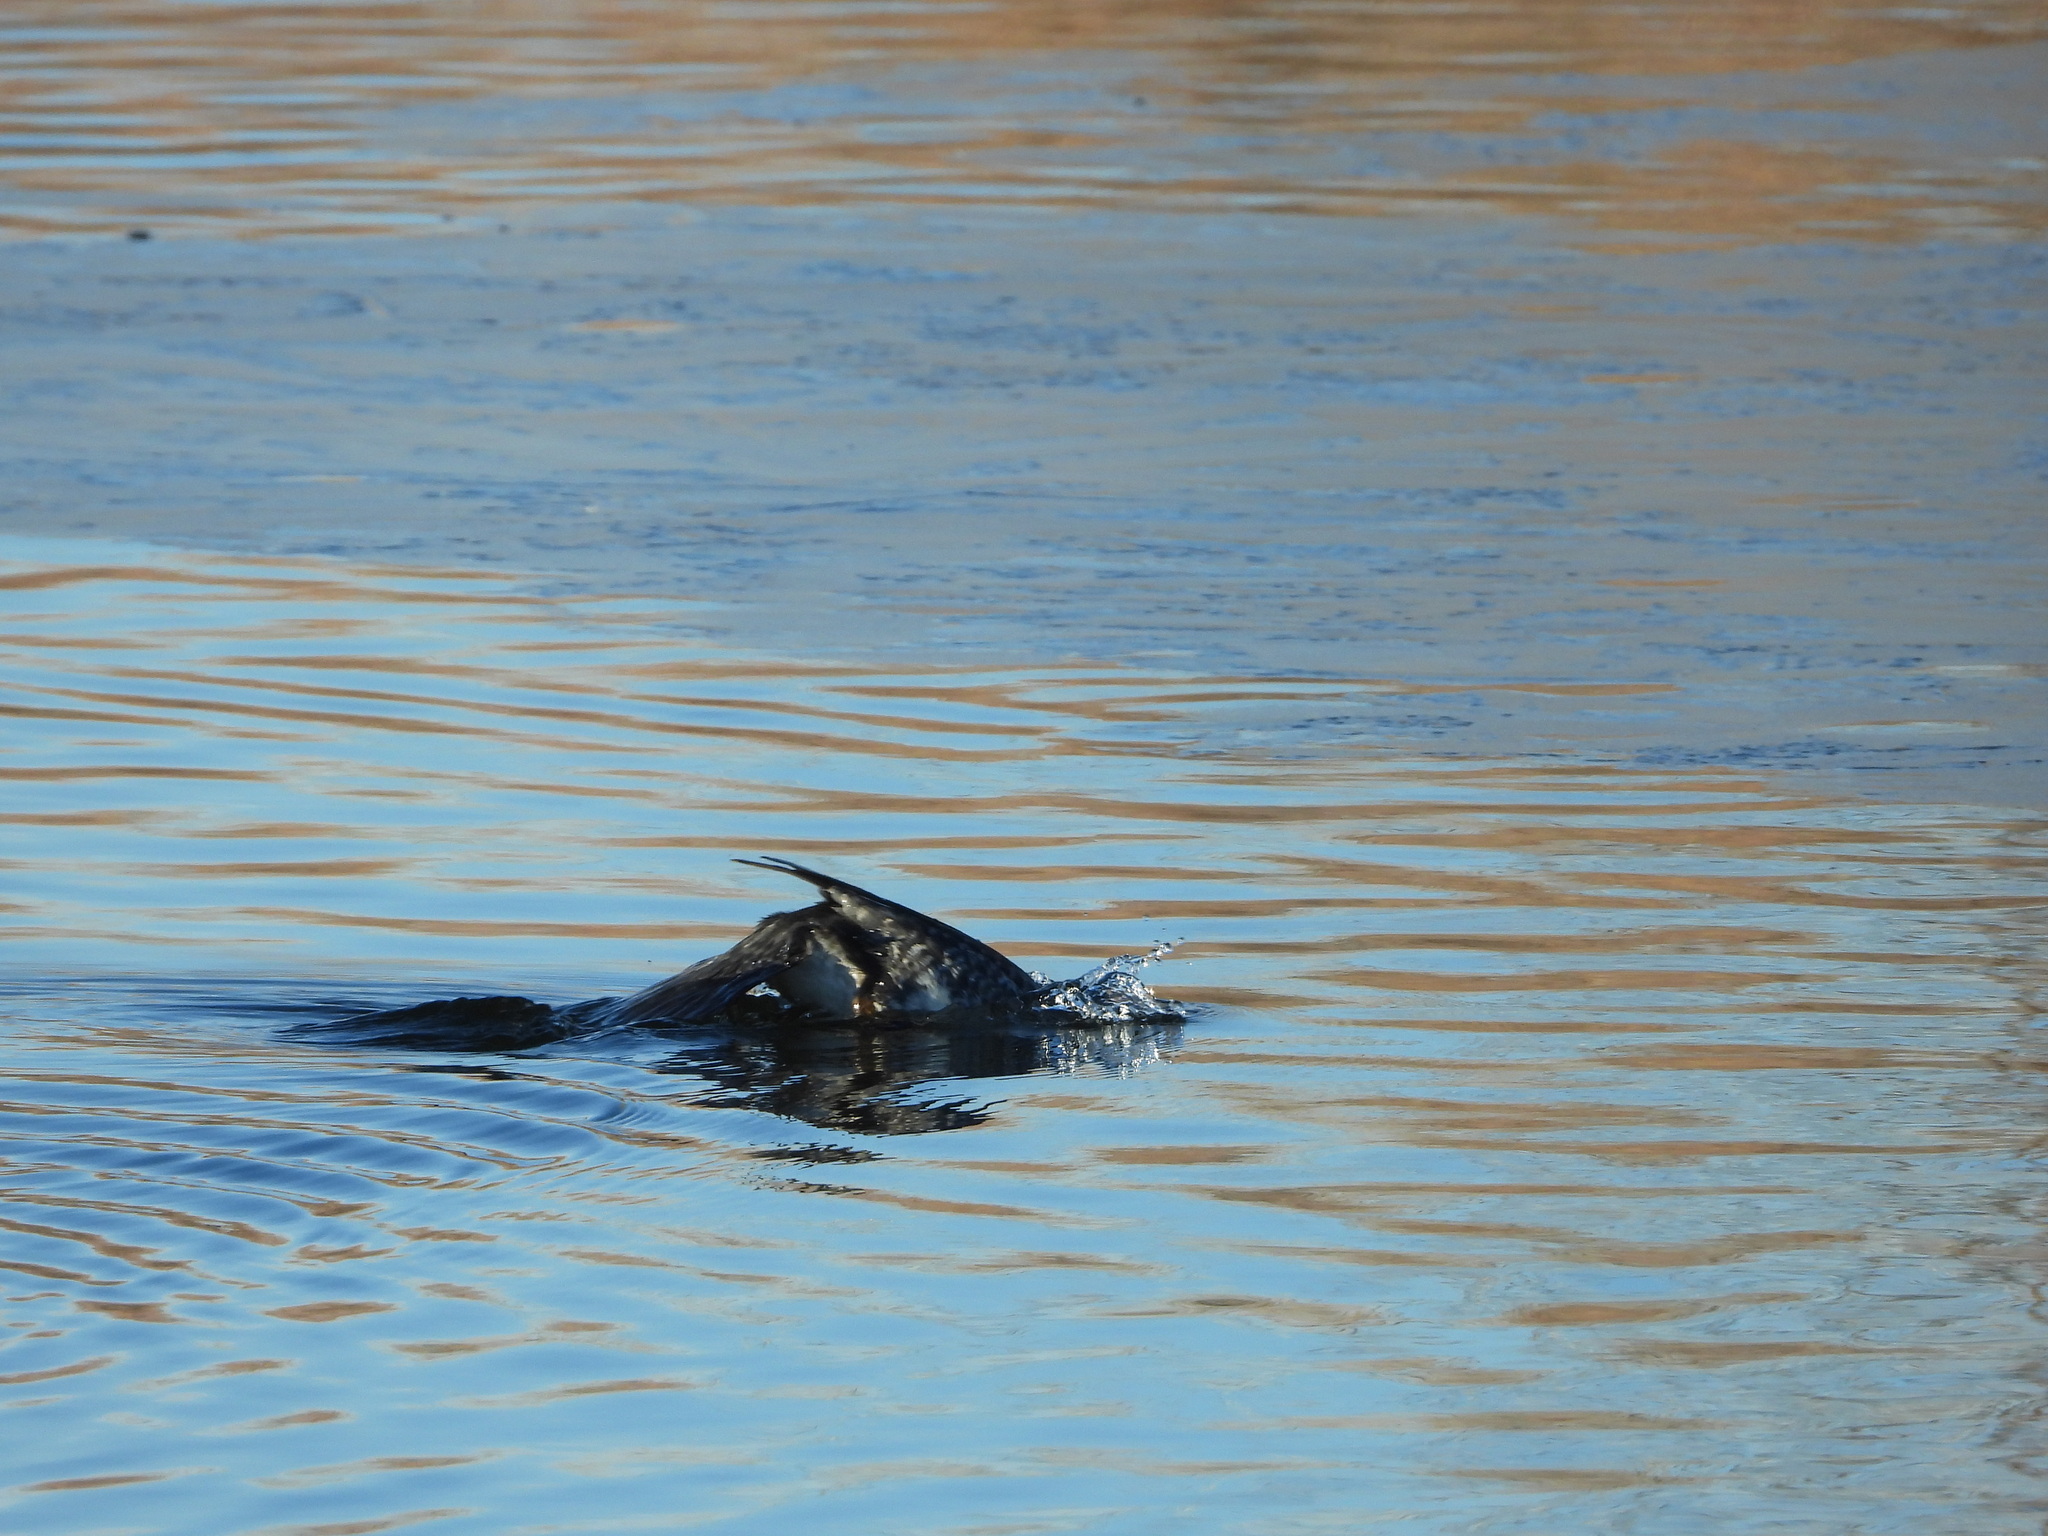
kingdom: Animalia
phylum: Chordata
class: Aves
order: Anseriformes
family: Anatidae
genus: Bucephala
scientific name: Bucephala clangula
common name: Common goldeneye
